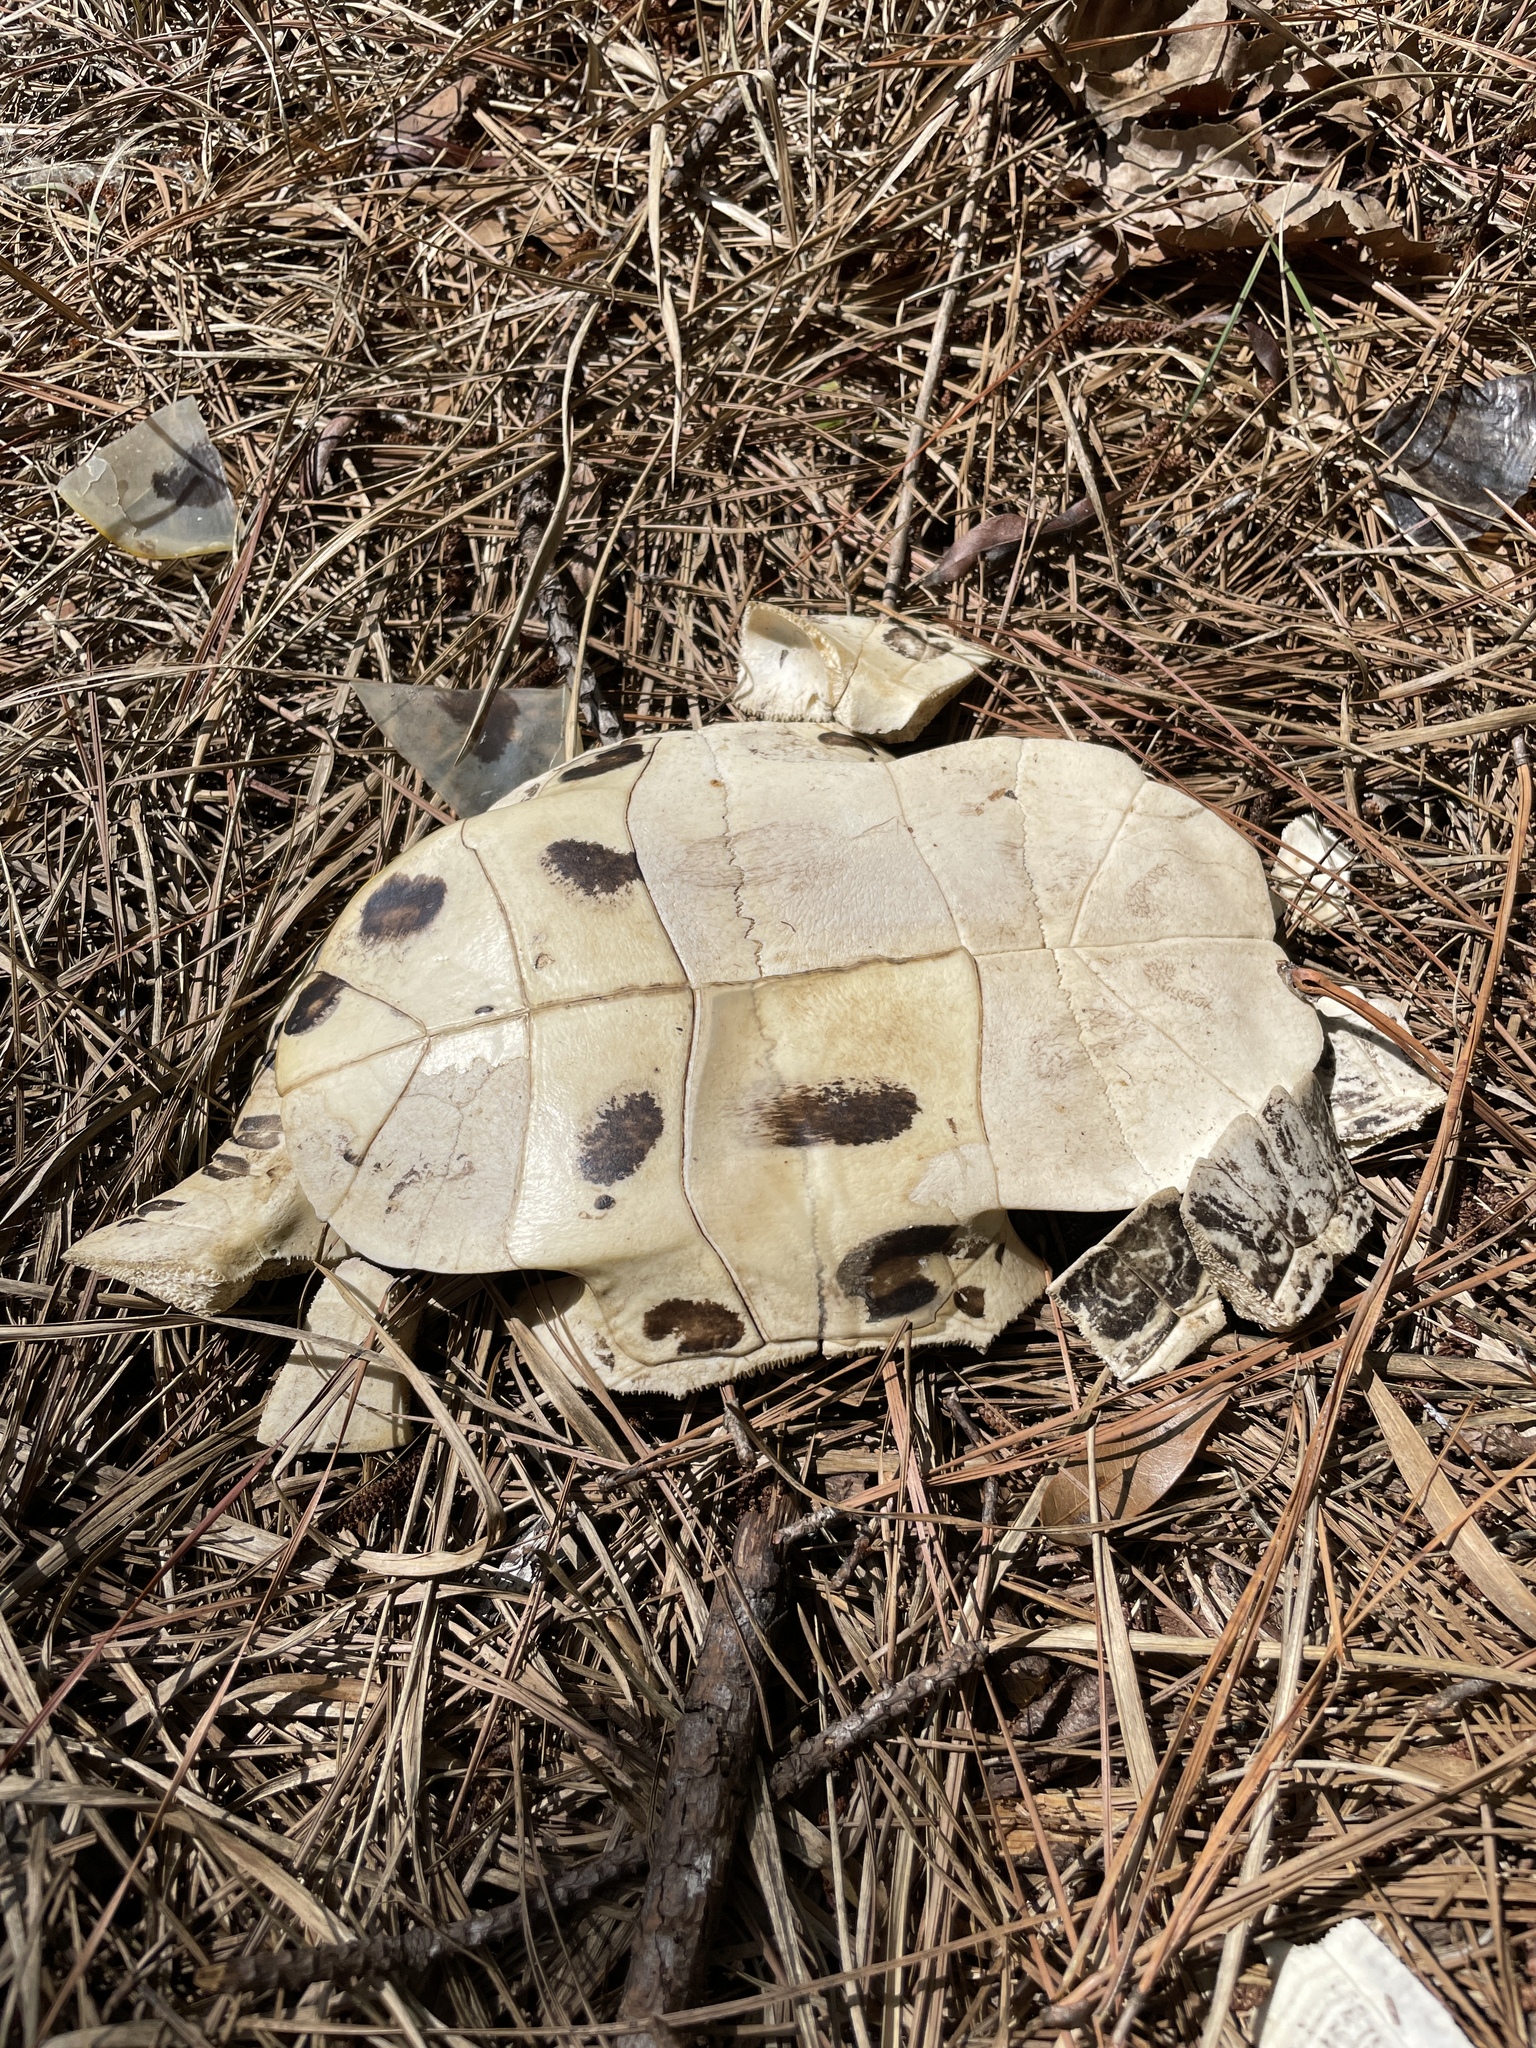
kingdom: Animalia
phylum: Chordata
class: Testudines
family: Emydidae
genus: Trachemys
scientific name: Trachemys scripta
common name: Slider
